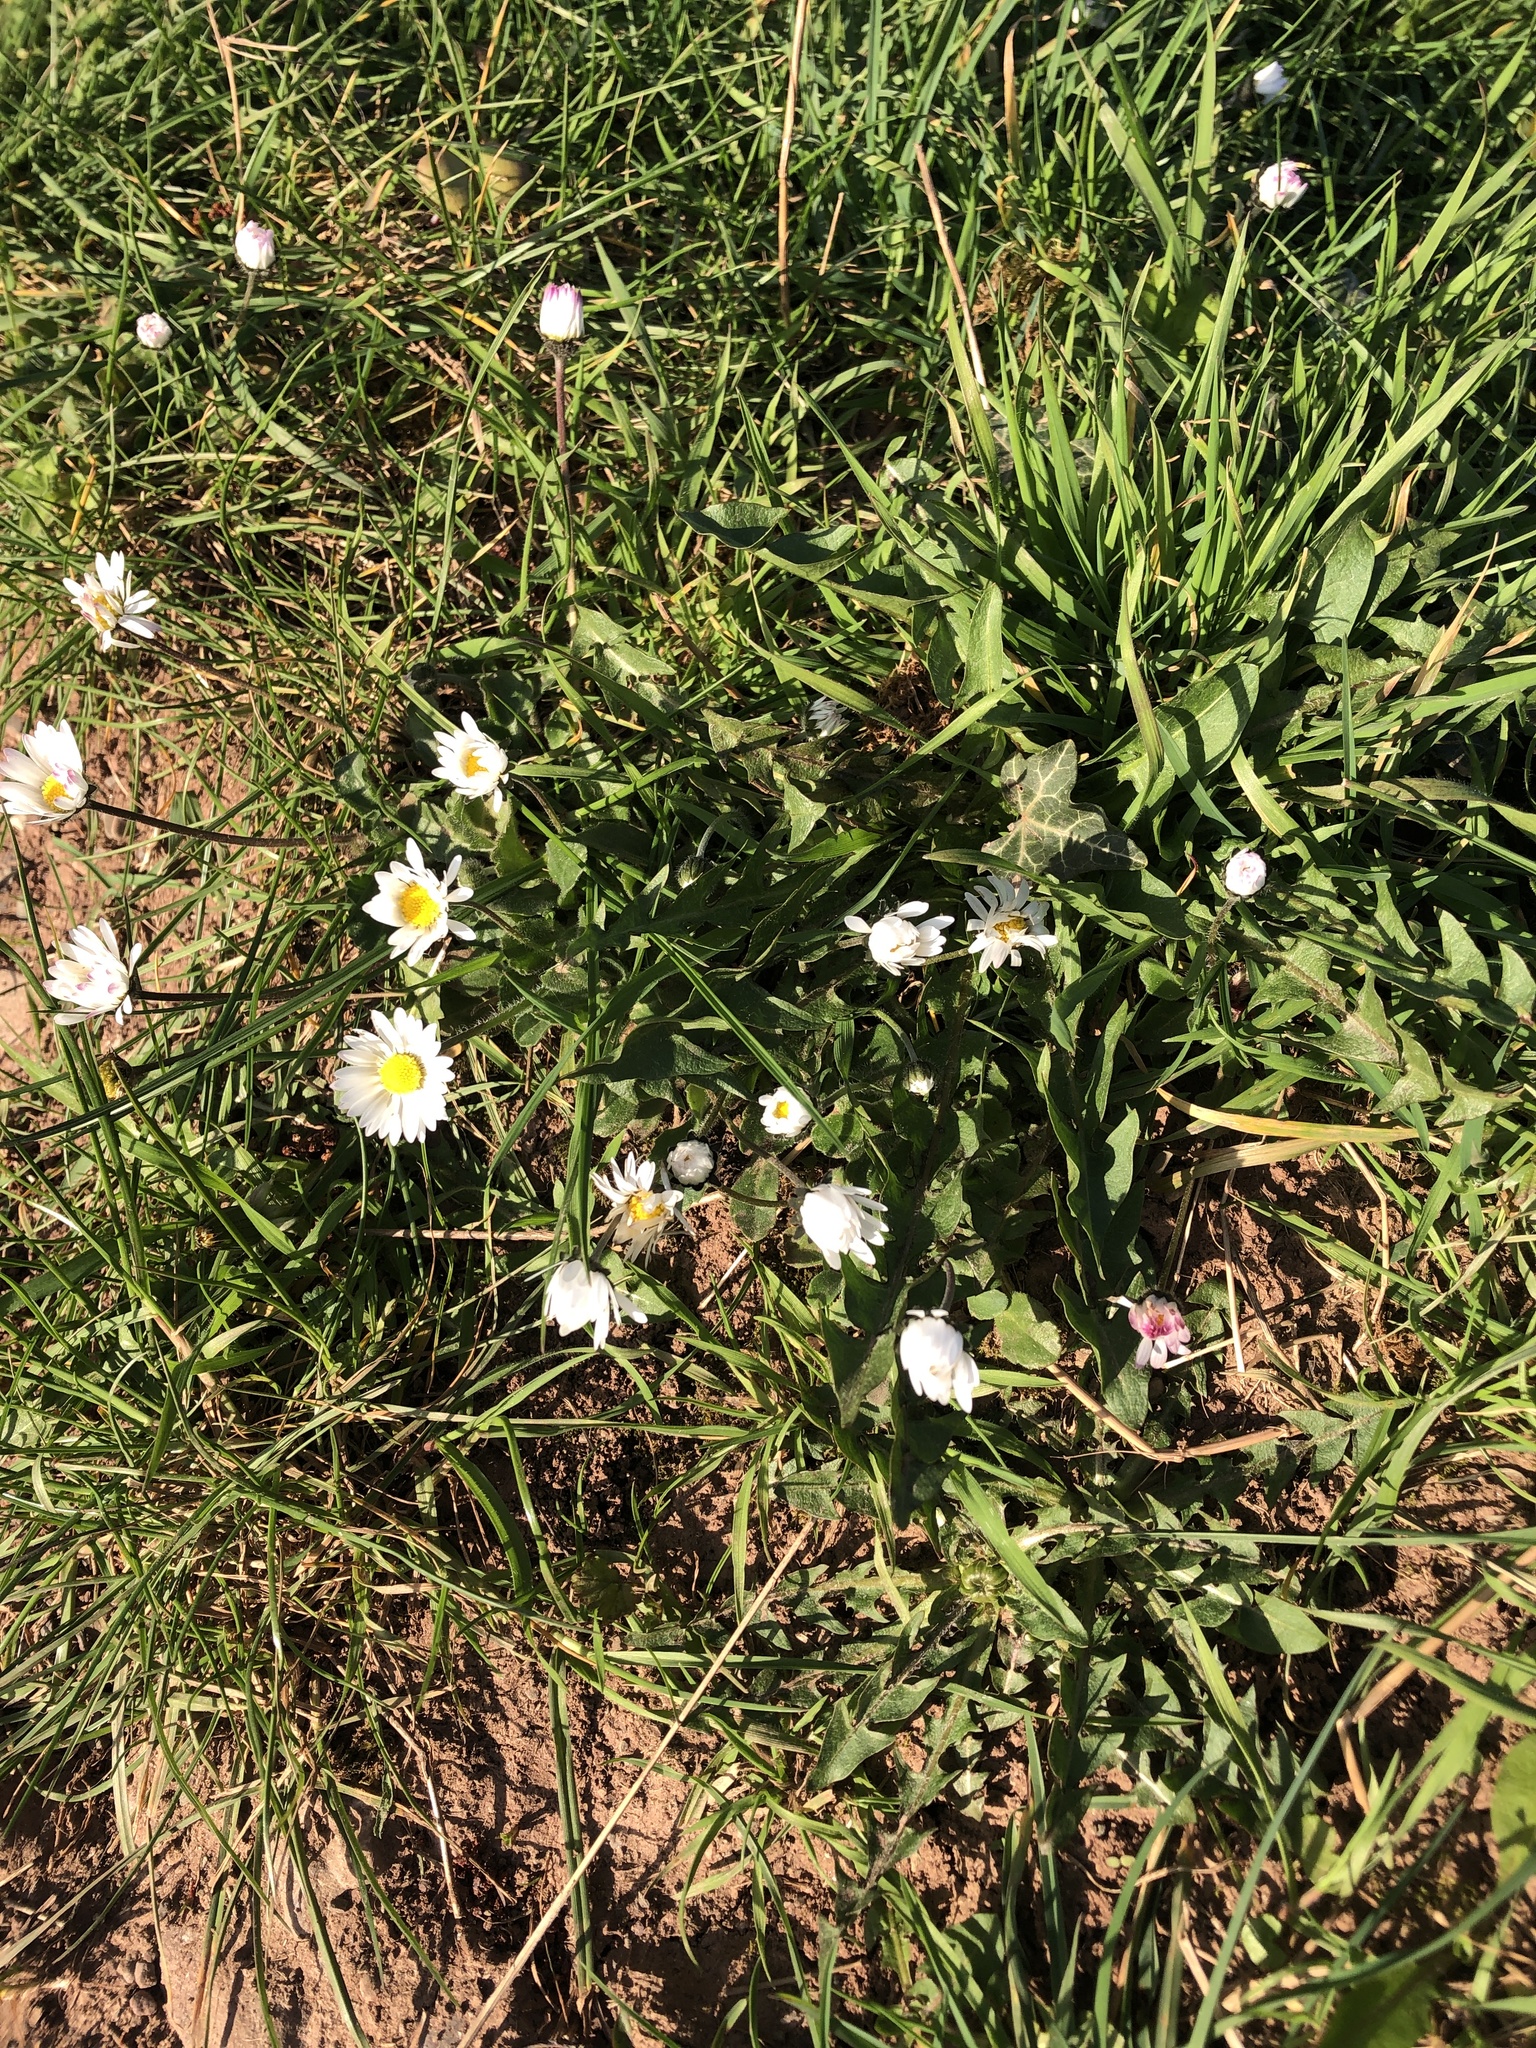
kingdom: Plantae
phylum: Tracheophyta
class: Magnoliopsida
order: Asterales
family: Asteraceae
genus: Bellis
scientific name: Bellis perennis
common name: Lawndaisy
